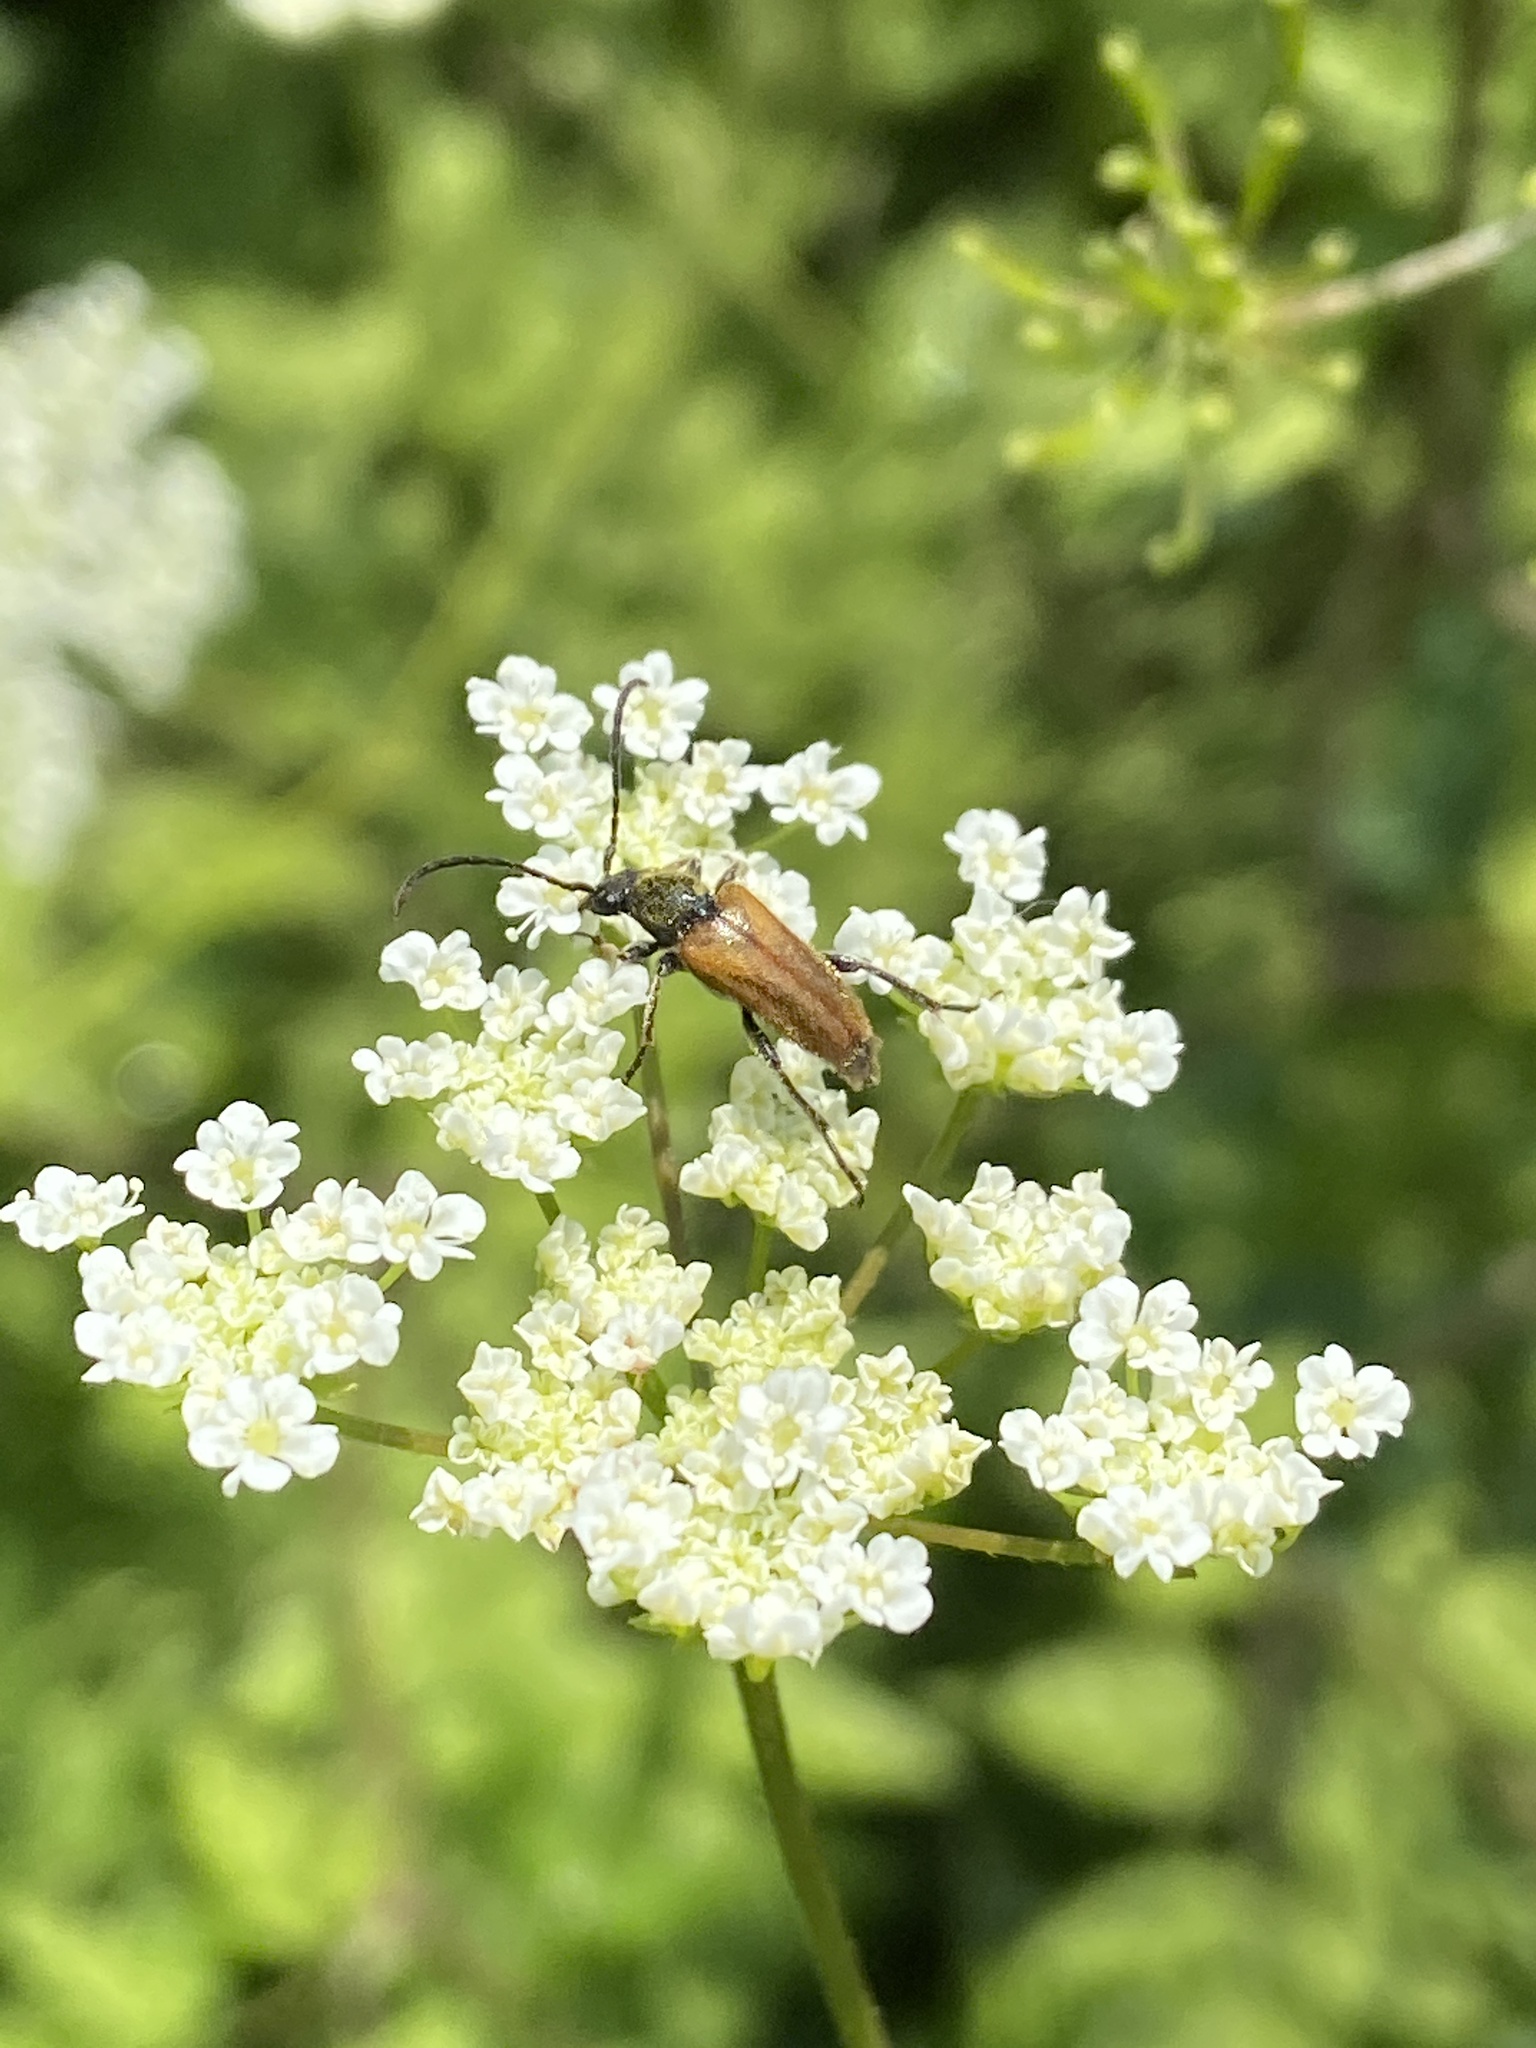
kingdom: Animalia
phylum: Arthropoda
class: Insecta
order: Coleoptera
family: Cerambycidae
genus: Pseudovadonia
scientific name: Pseudovadonia livida
